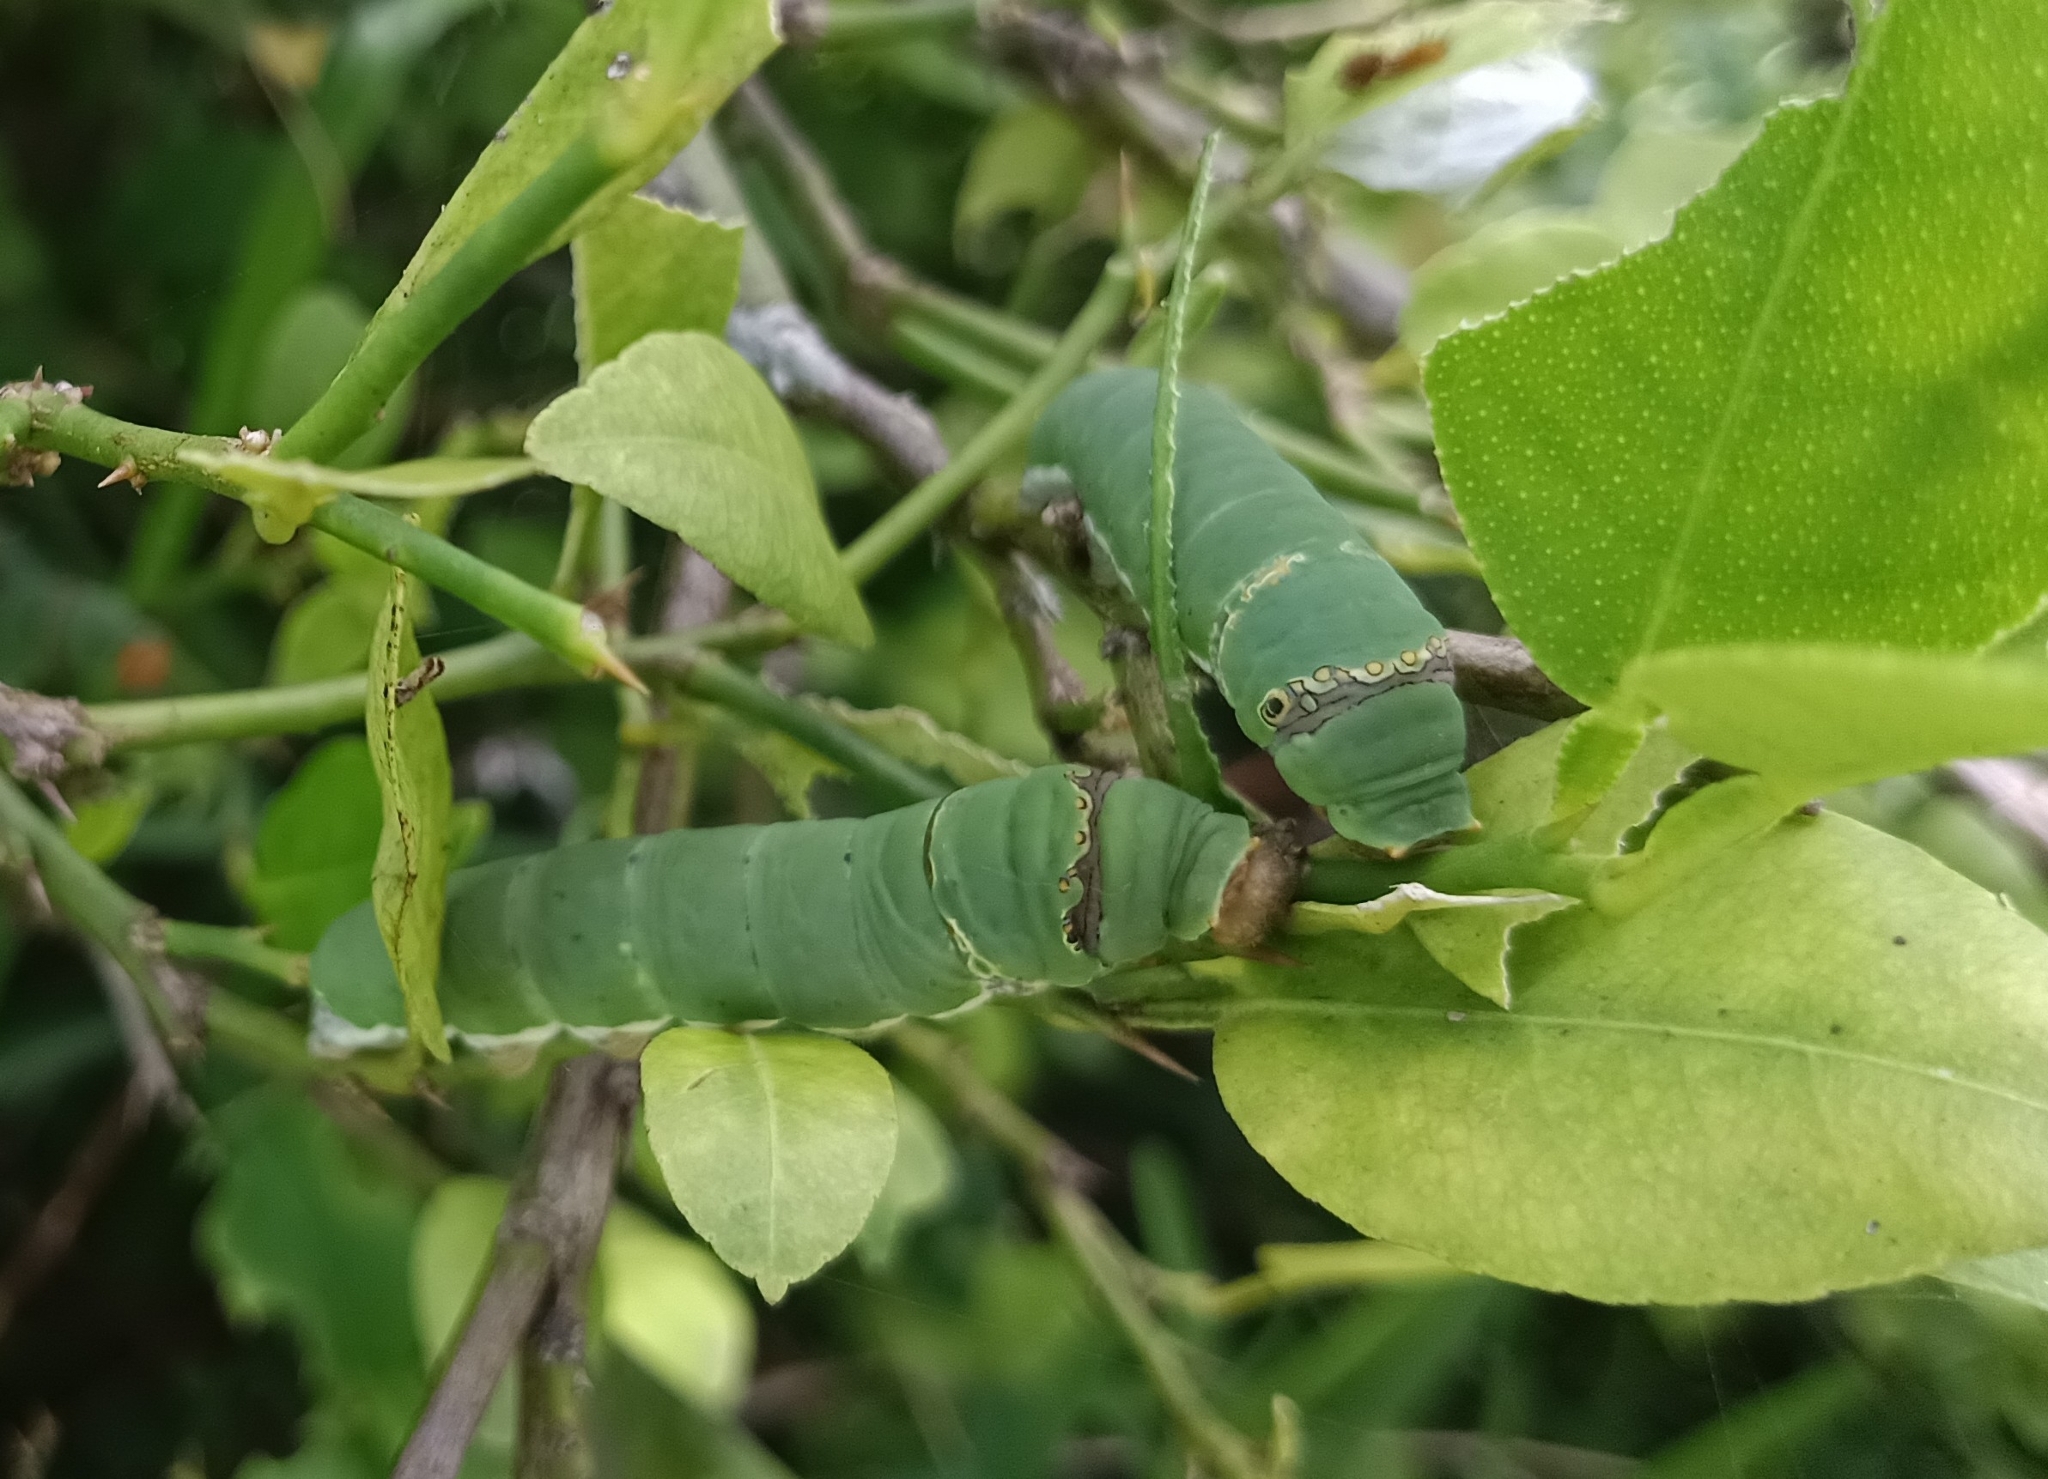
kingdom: Animalia
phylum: Arthropoda
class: Insecta
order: Lepidoptera
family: Papilionidae
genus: Papilio
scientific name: Papilio demoleus
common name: Lime butterfly
